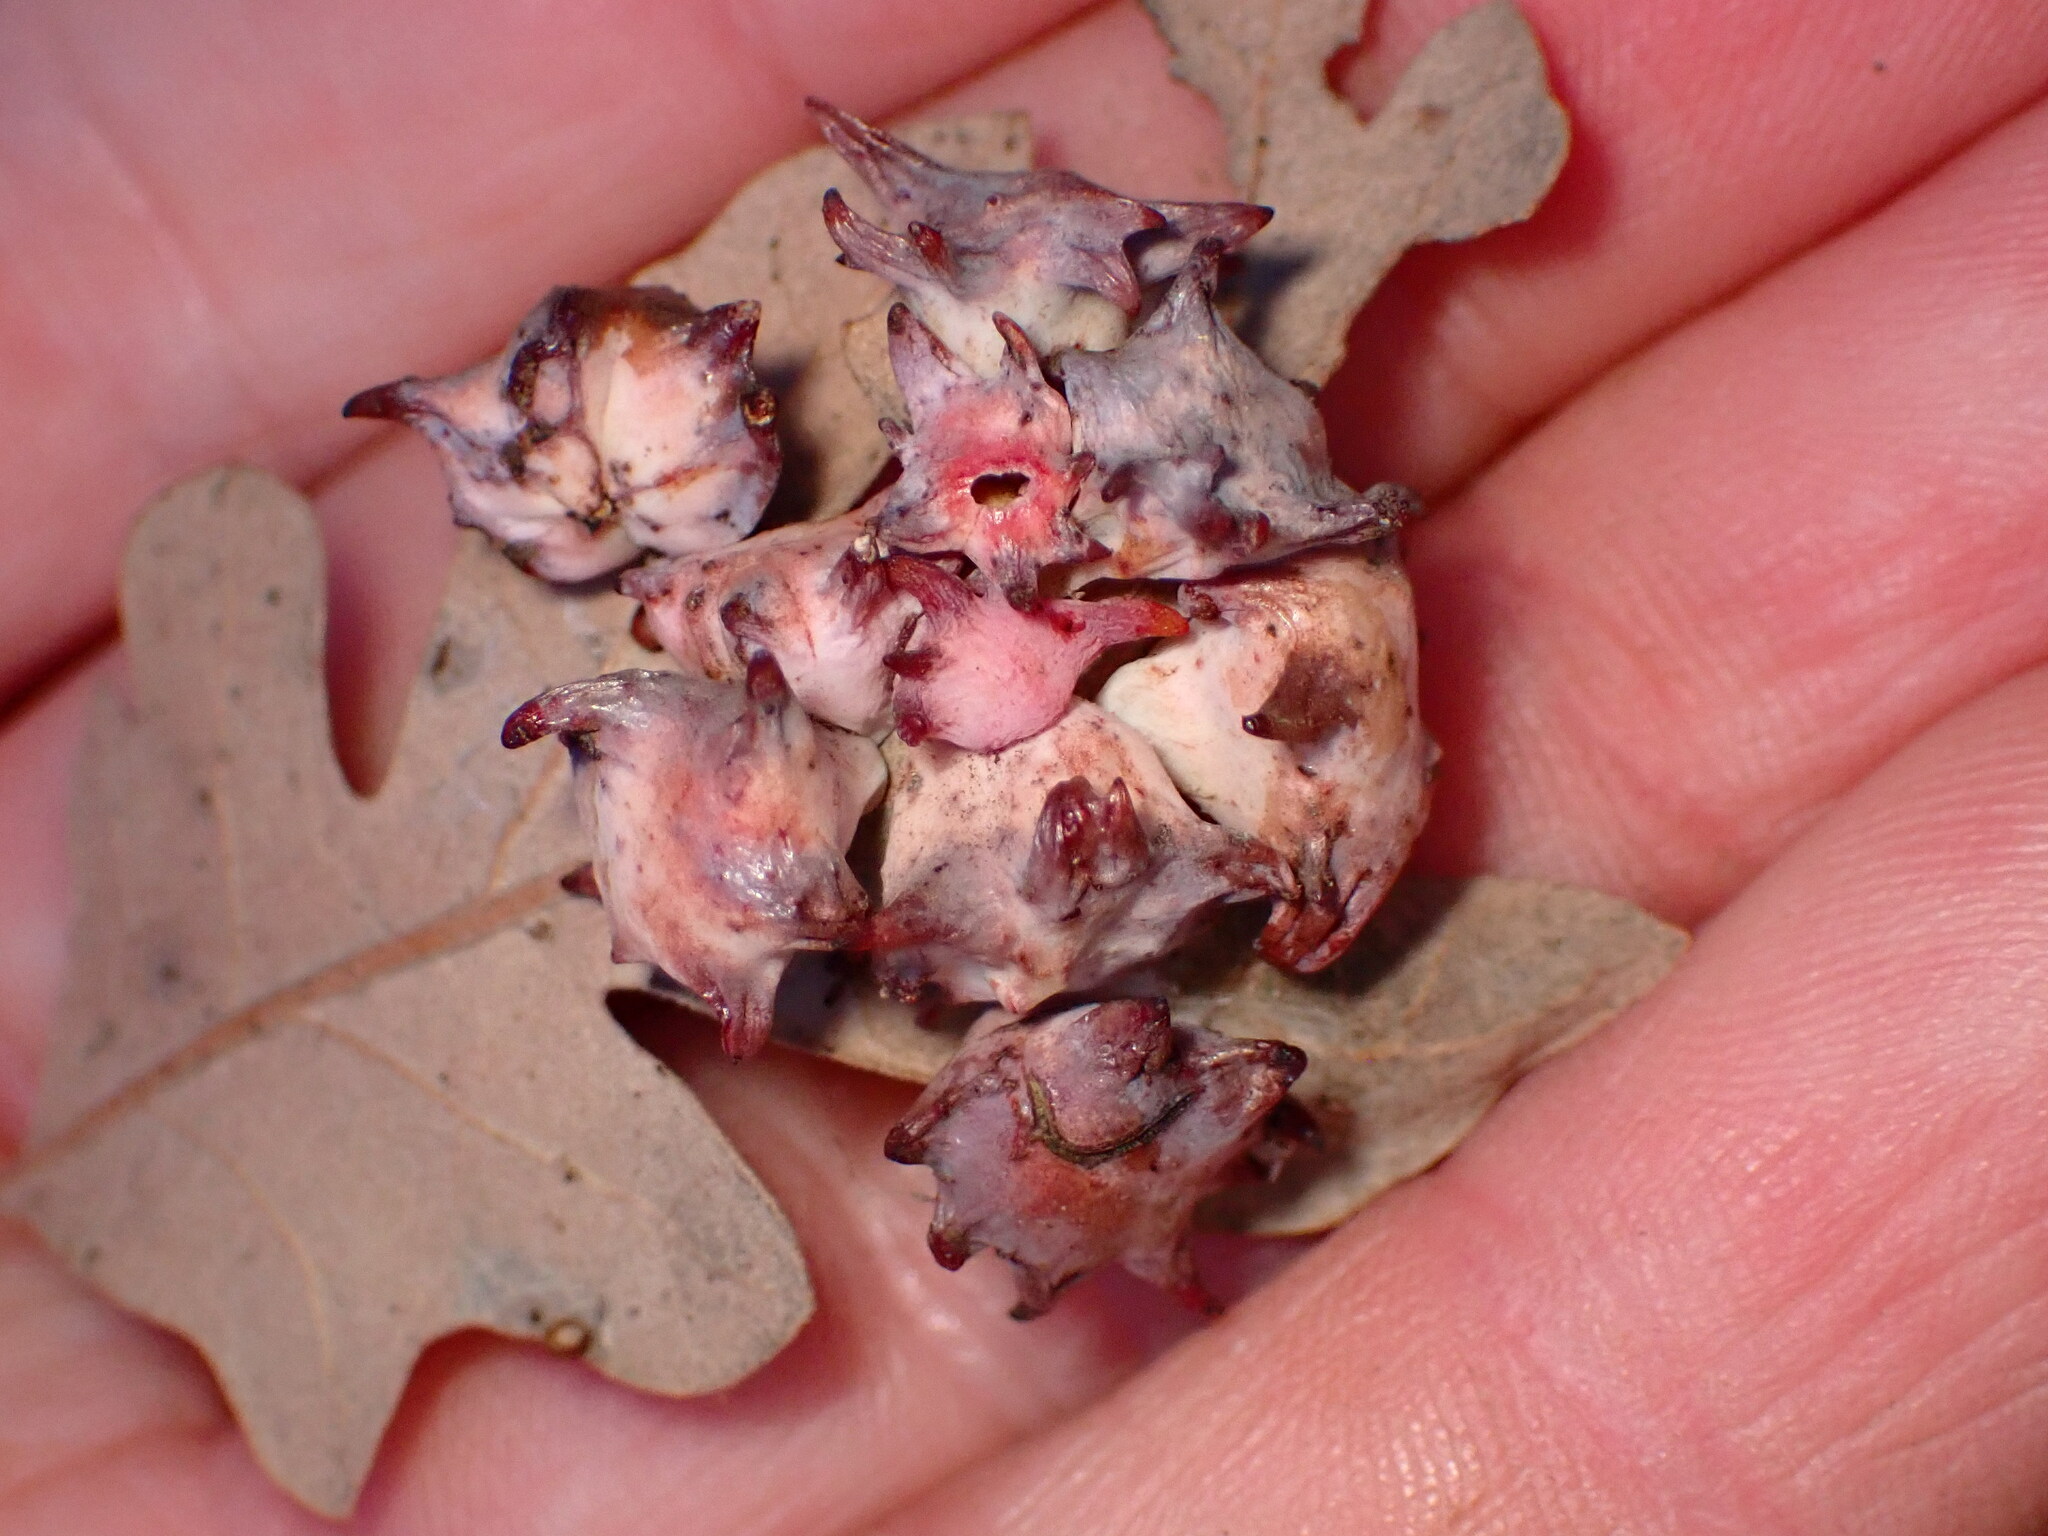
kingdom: Animalia
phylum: Arthropoda
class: Insecta
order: Hymenoptera
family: Cynipidae
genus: Cynips
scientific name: Cynips douglasi
